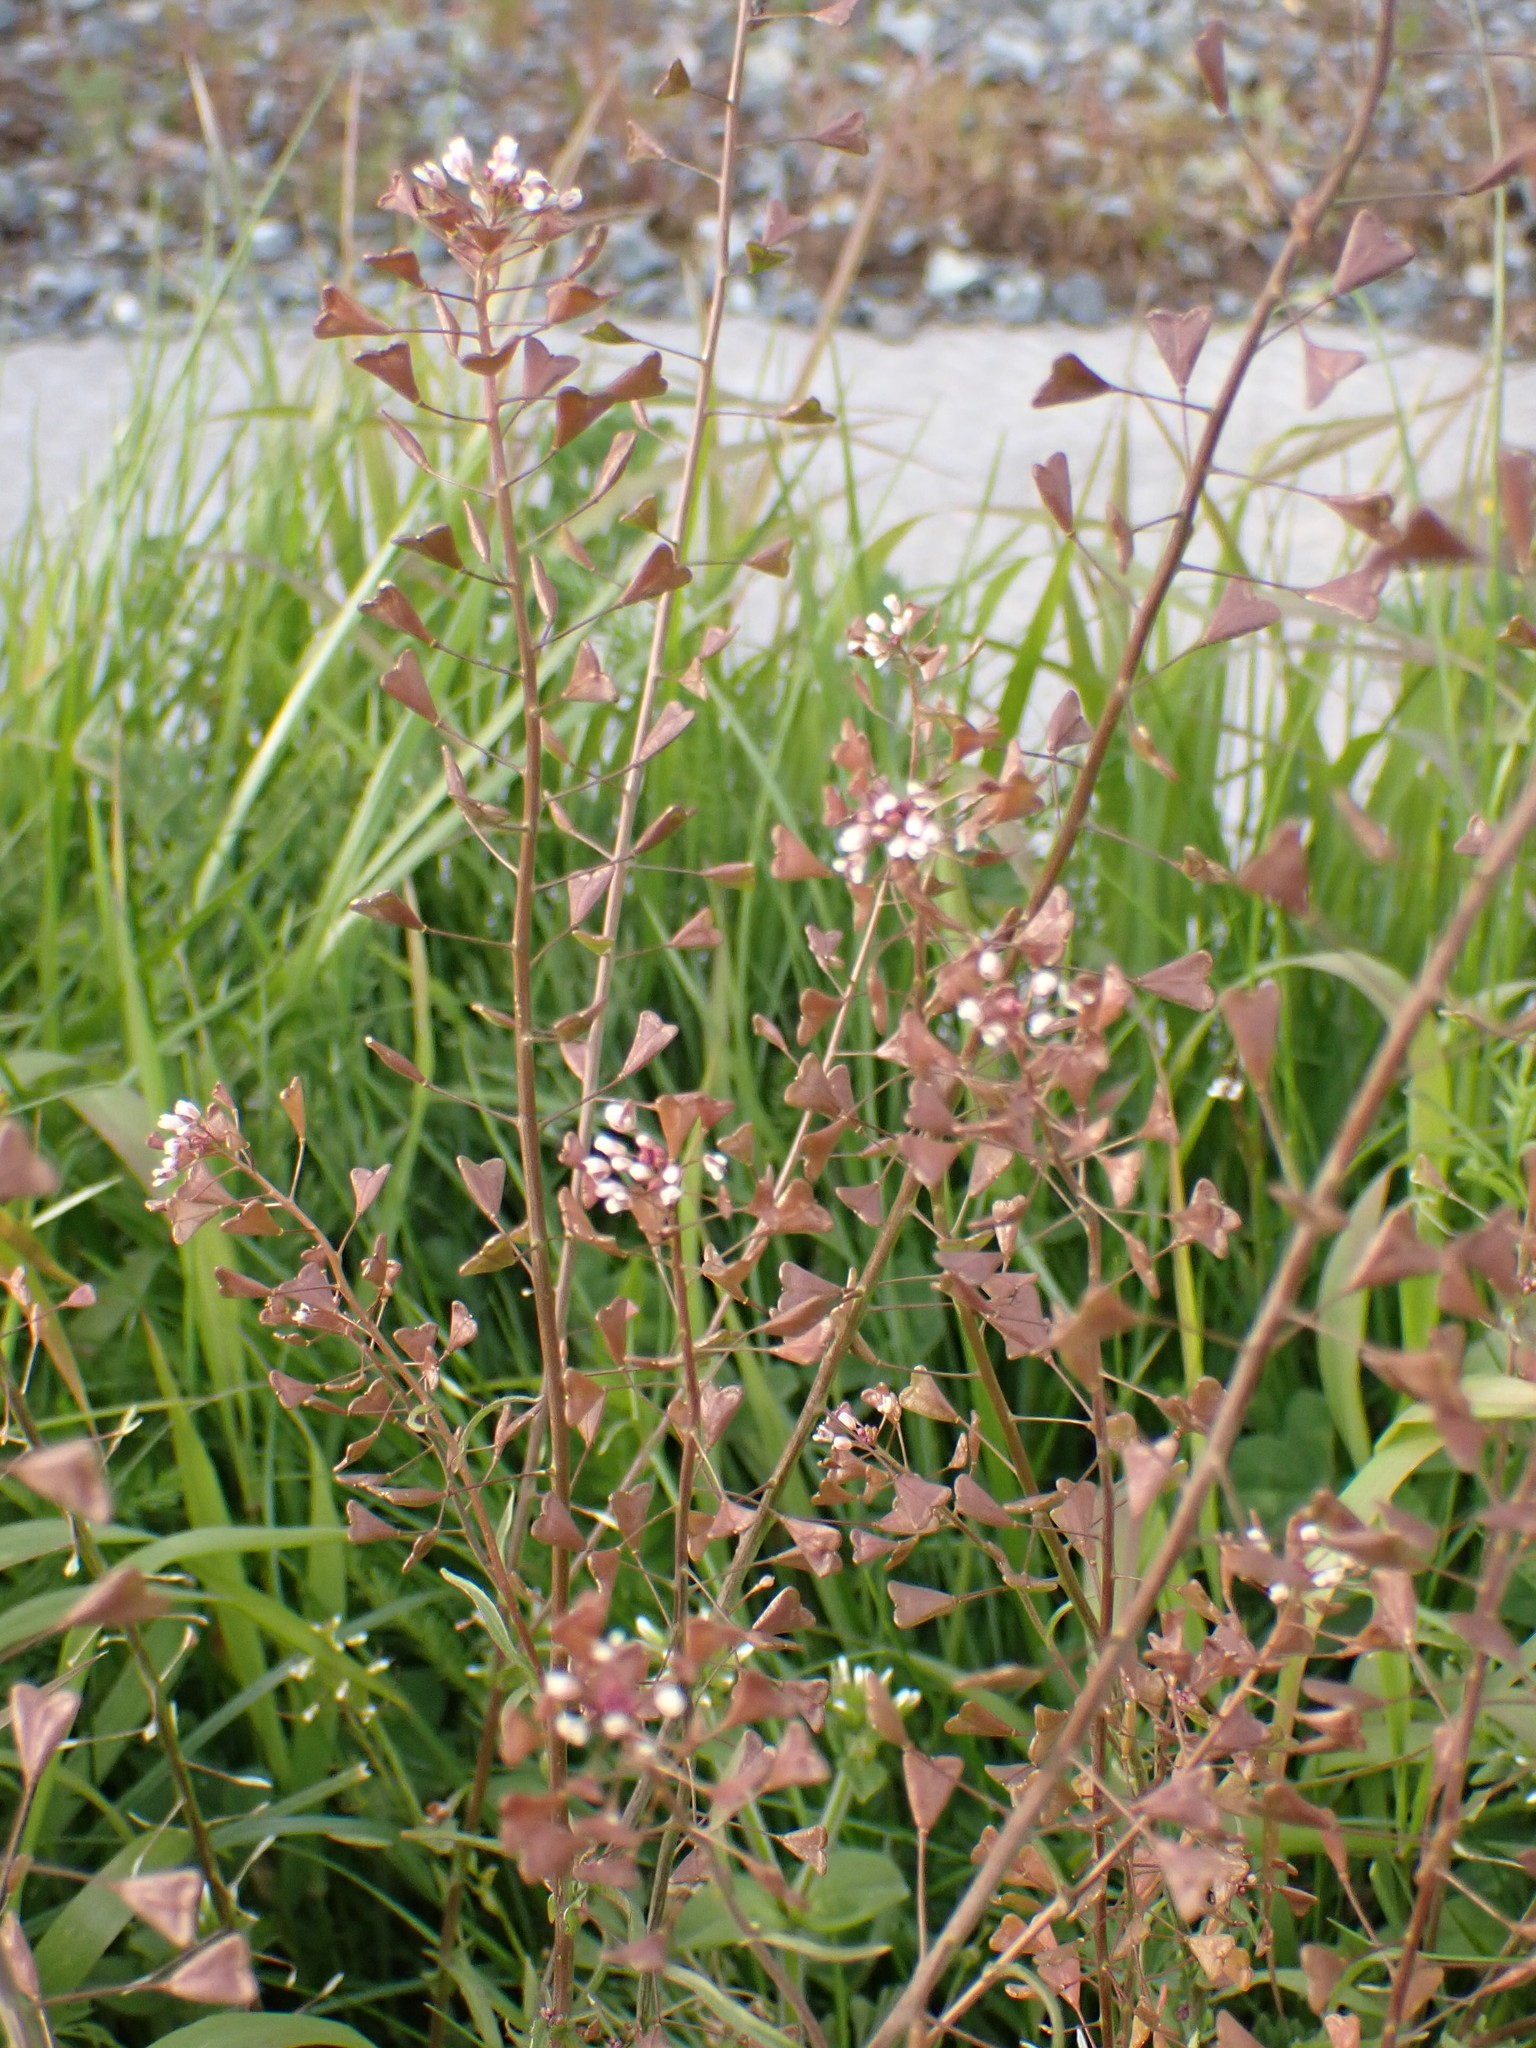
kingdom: Plantae
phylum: Tracheophyta
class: Magnoliopsida
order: Brassicales
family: Brassicaceae
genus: Capsella
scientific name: Capsella bursa-pastoris
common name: Shepherd's purse
